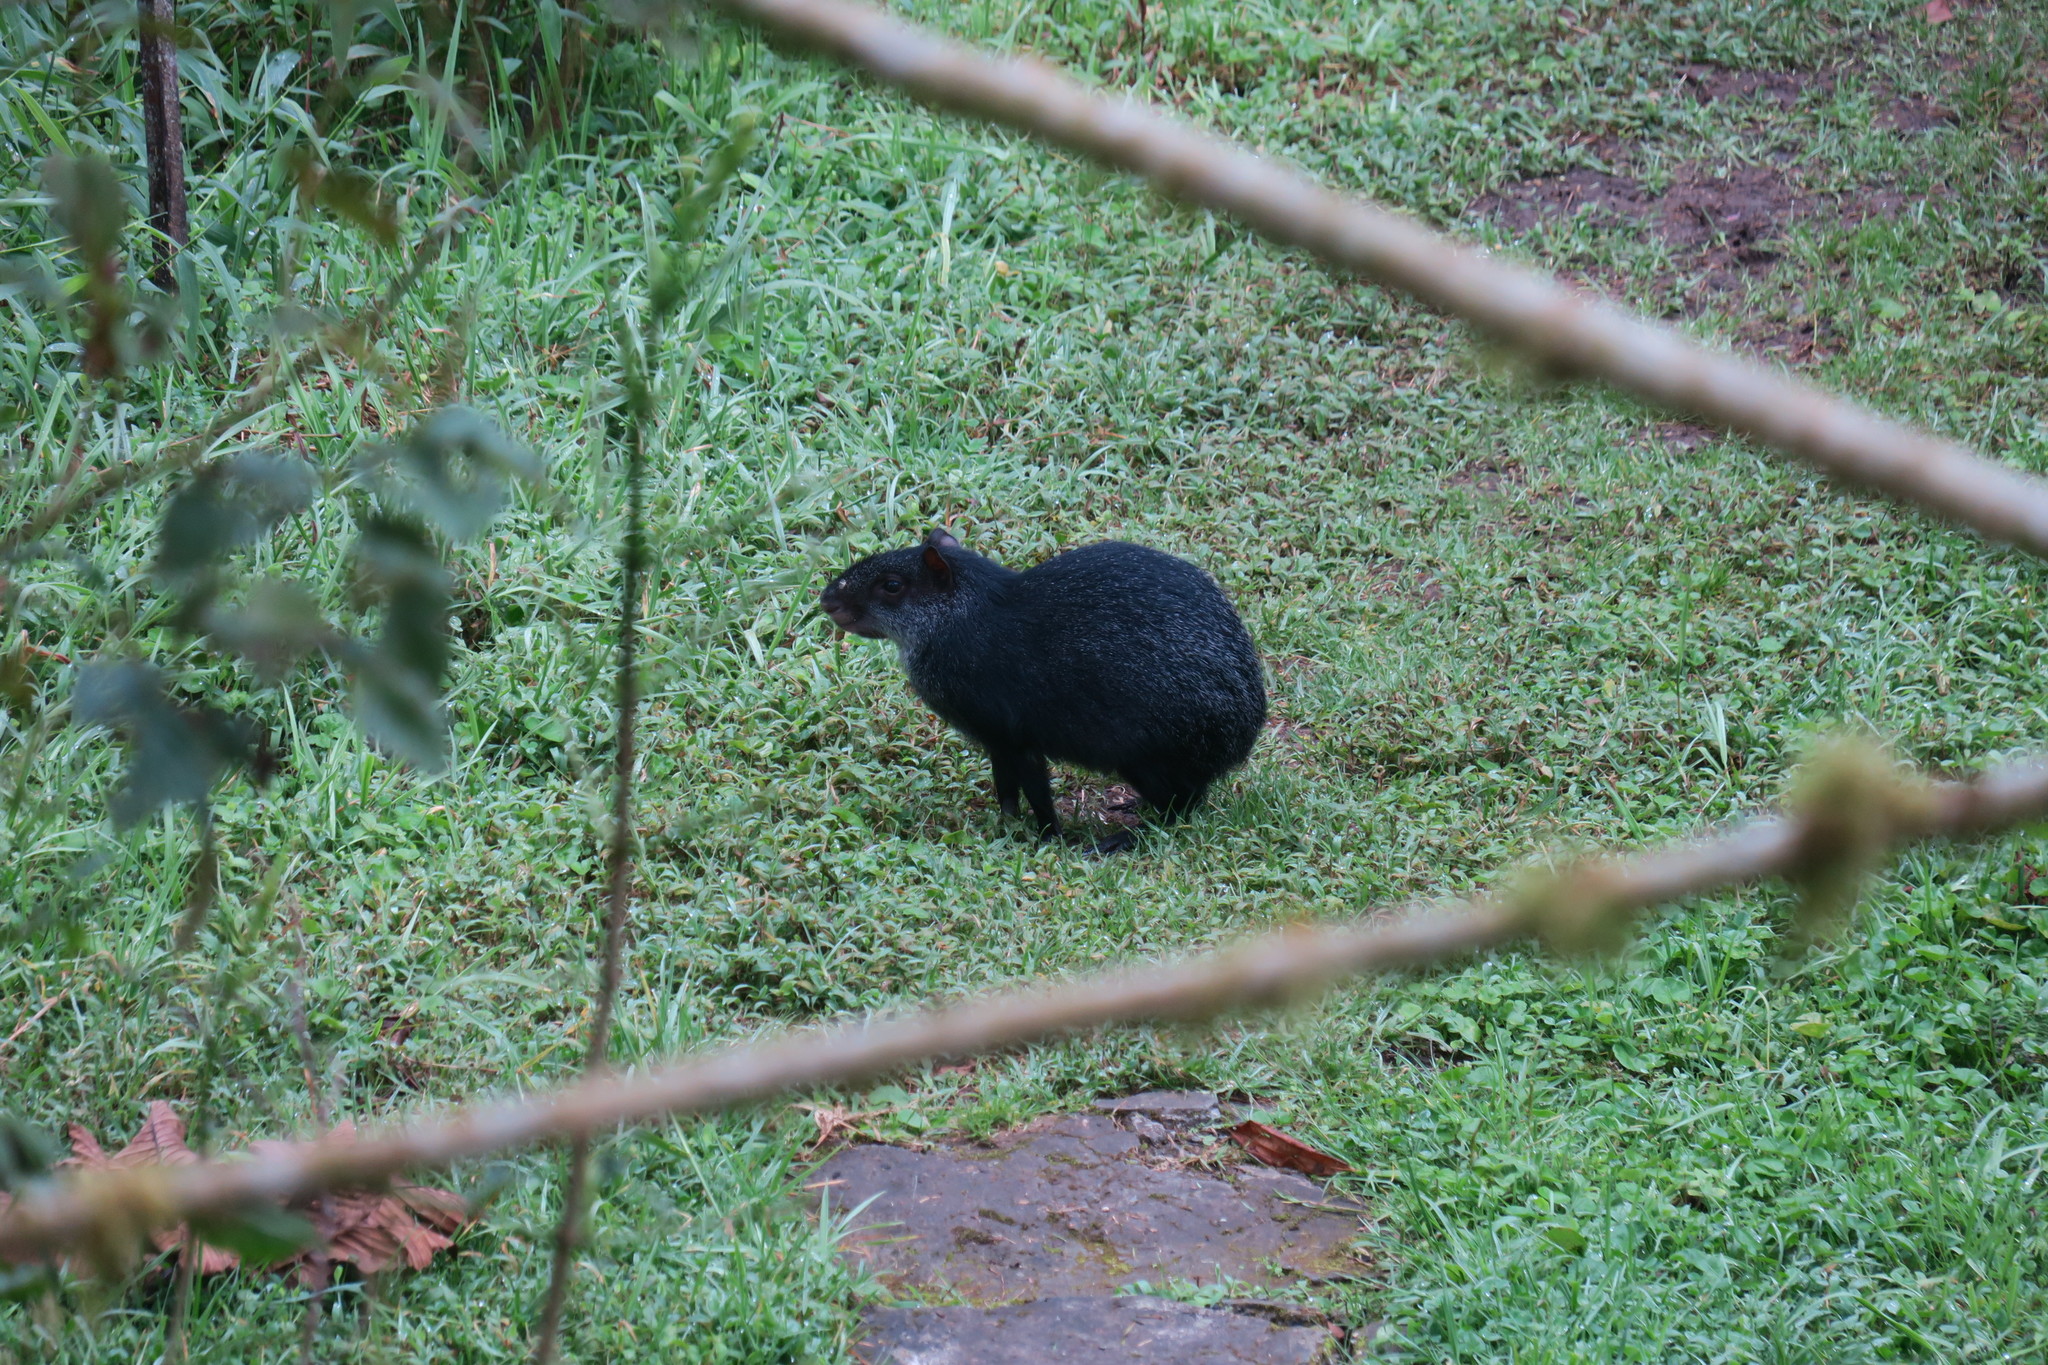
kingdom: Animalia
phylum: Chordata
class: Mammalia
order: Rodentia
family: Dasyproctidae
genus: Dasyprocta
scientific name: Dasyprocta fuliginosa
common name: Black agouti
